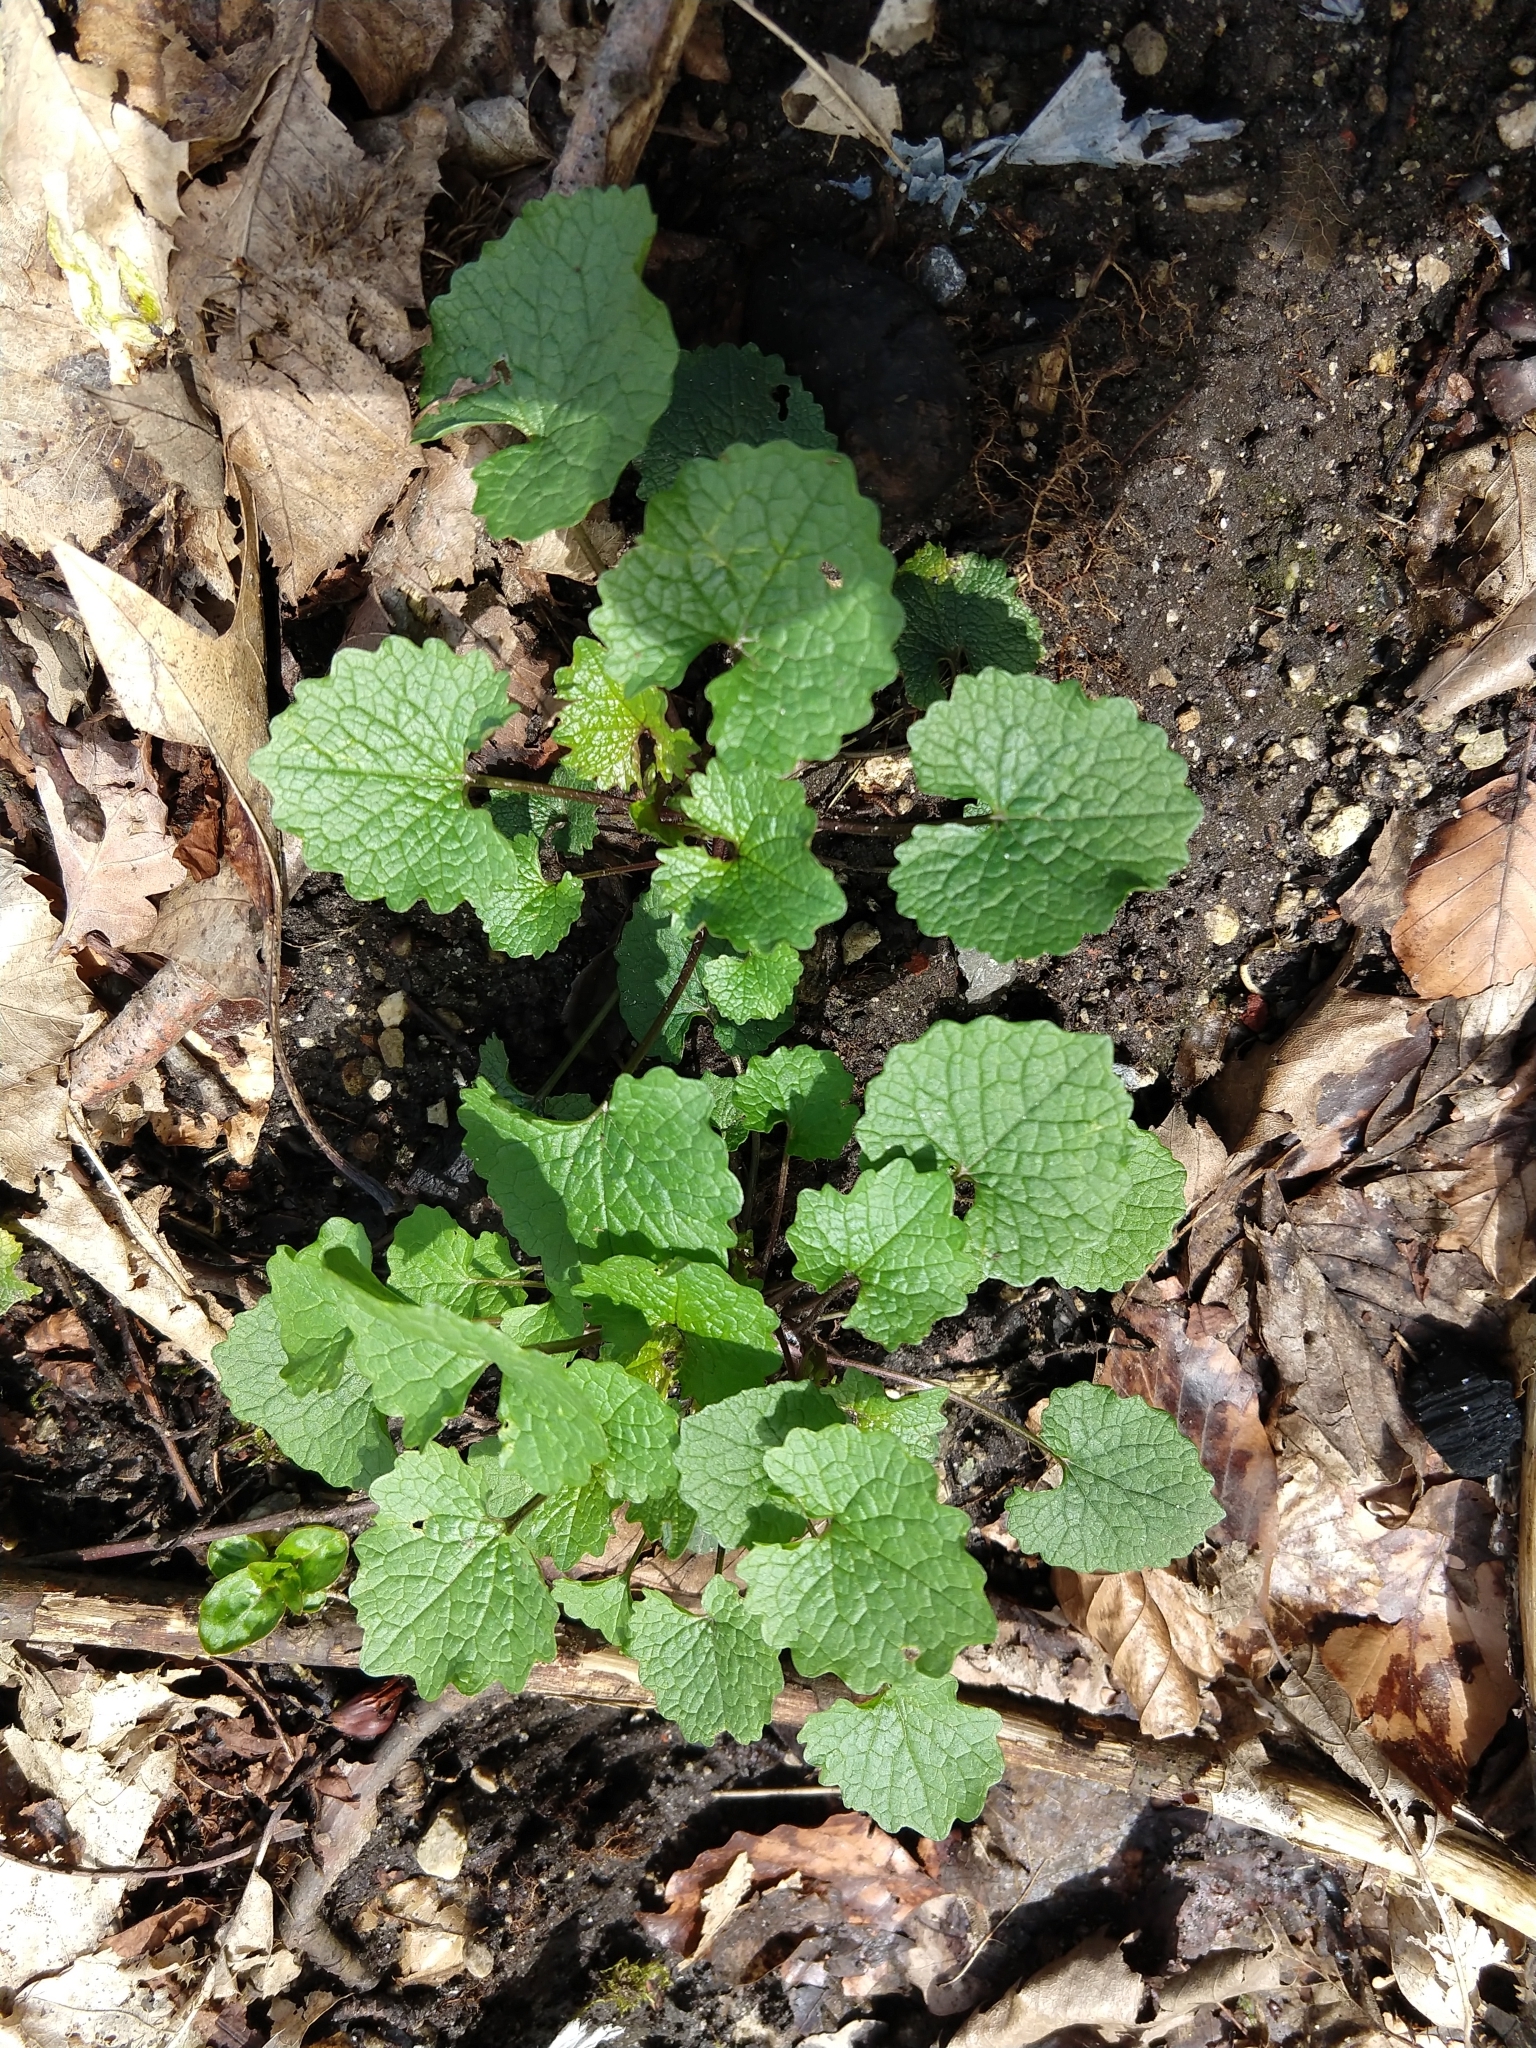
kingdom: Plantae
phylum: Tracheophyta
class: Magnoliopsida
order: Brassicales
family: Brassicaceae
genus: Alliaria
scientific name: Alliaria petiolata
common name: Garlic mustard
